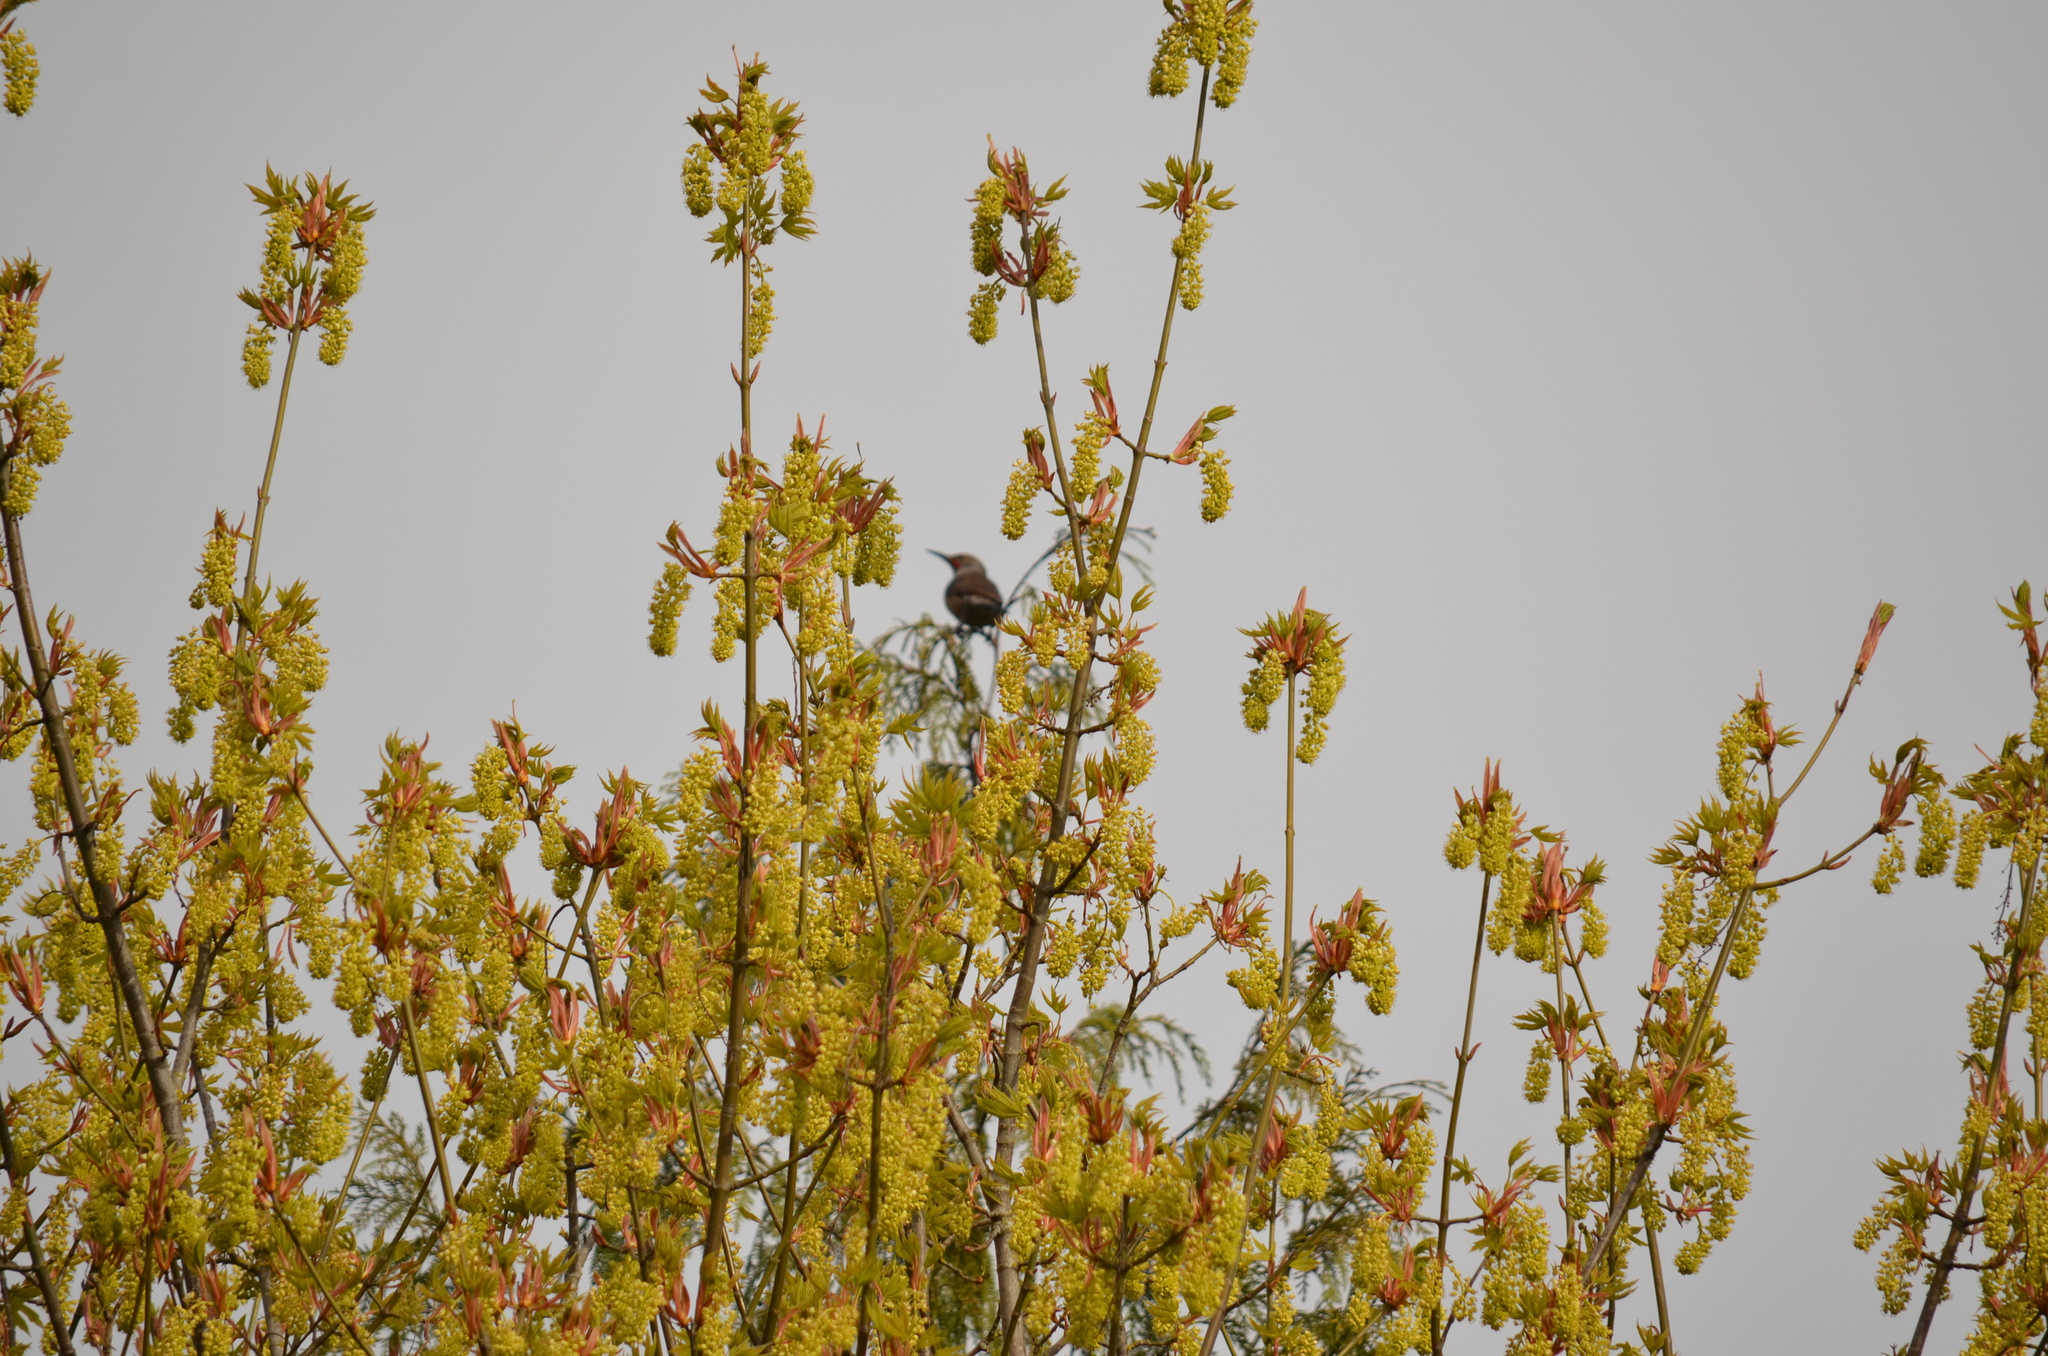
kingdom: Animalia
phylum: Chordata
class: Aves
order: Piciformes
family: Picidae
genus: Colaptes
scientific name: Colaptes auratus
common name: Northern flicker
